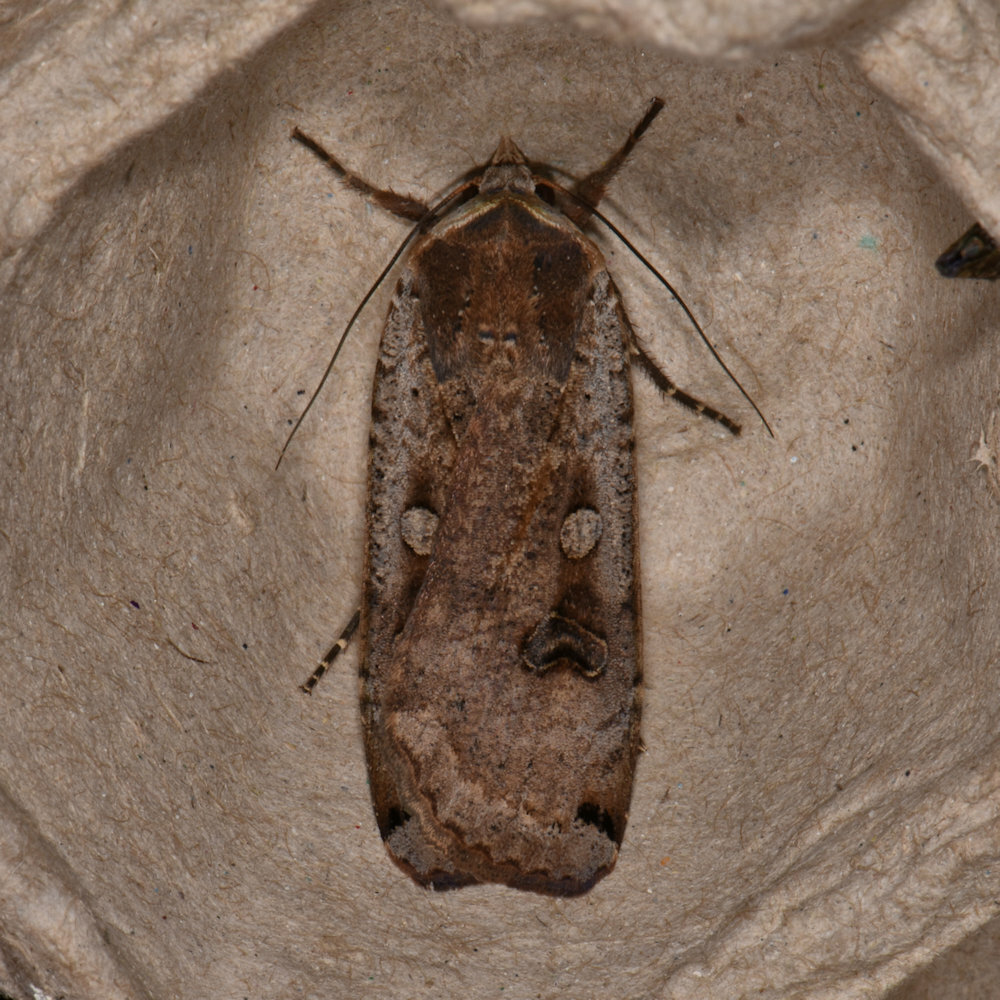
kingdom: Animalia
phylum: Arthropoda
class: Insecta
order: Lepidoptera
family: Noctuidae
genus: Noctua
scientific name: Noctua pronuba
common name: Large yellow underwing
